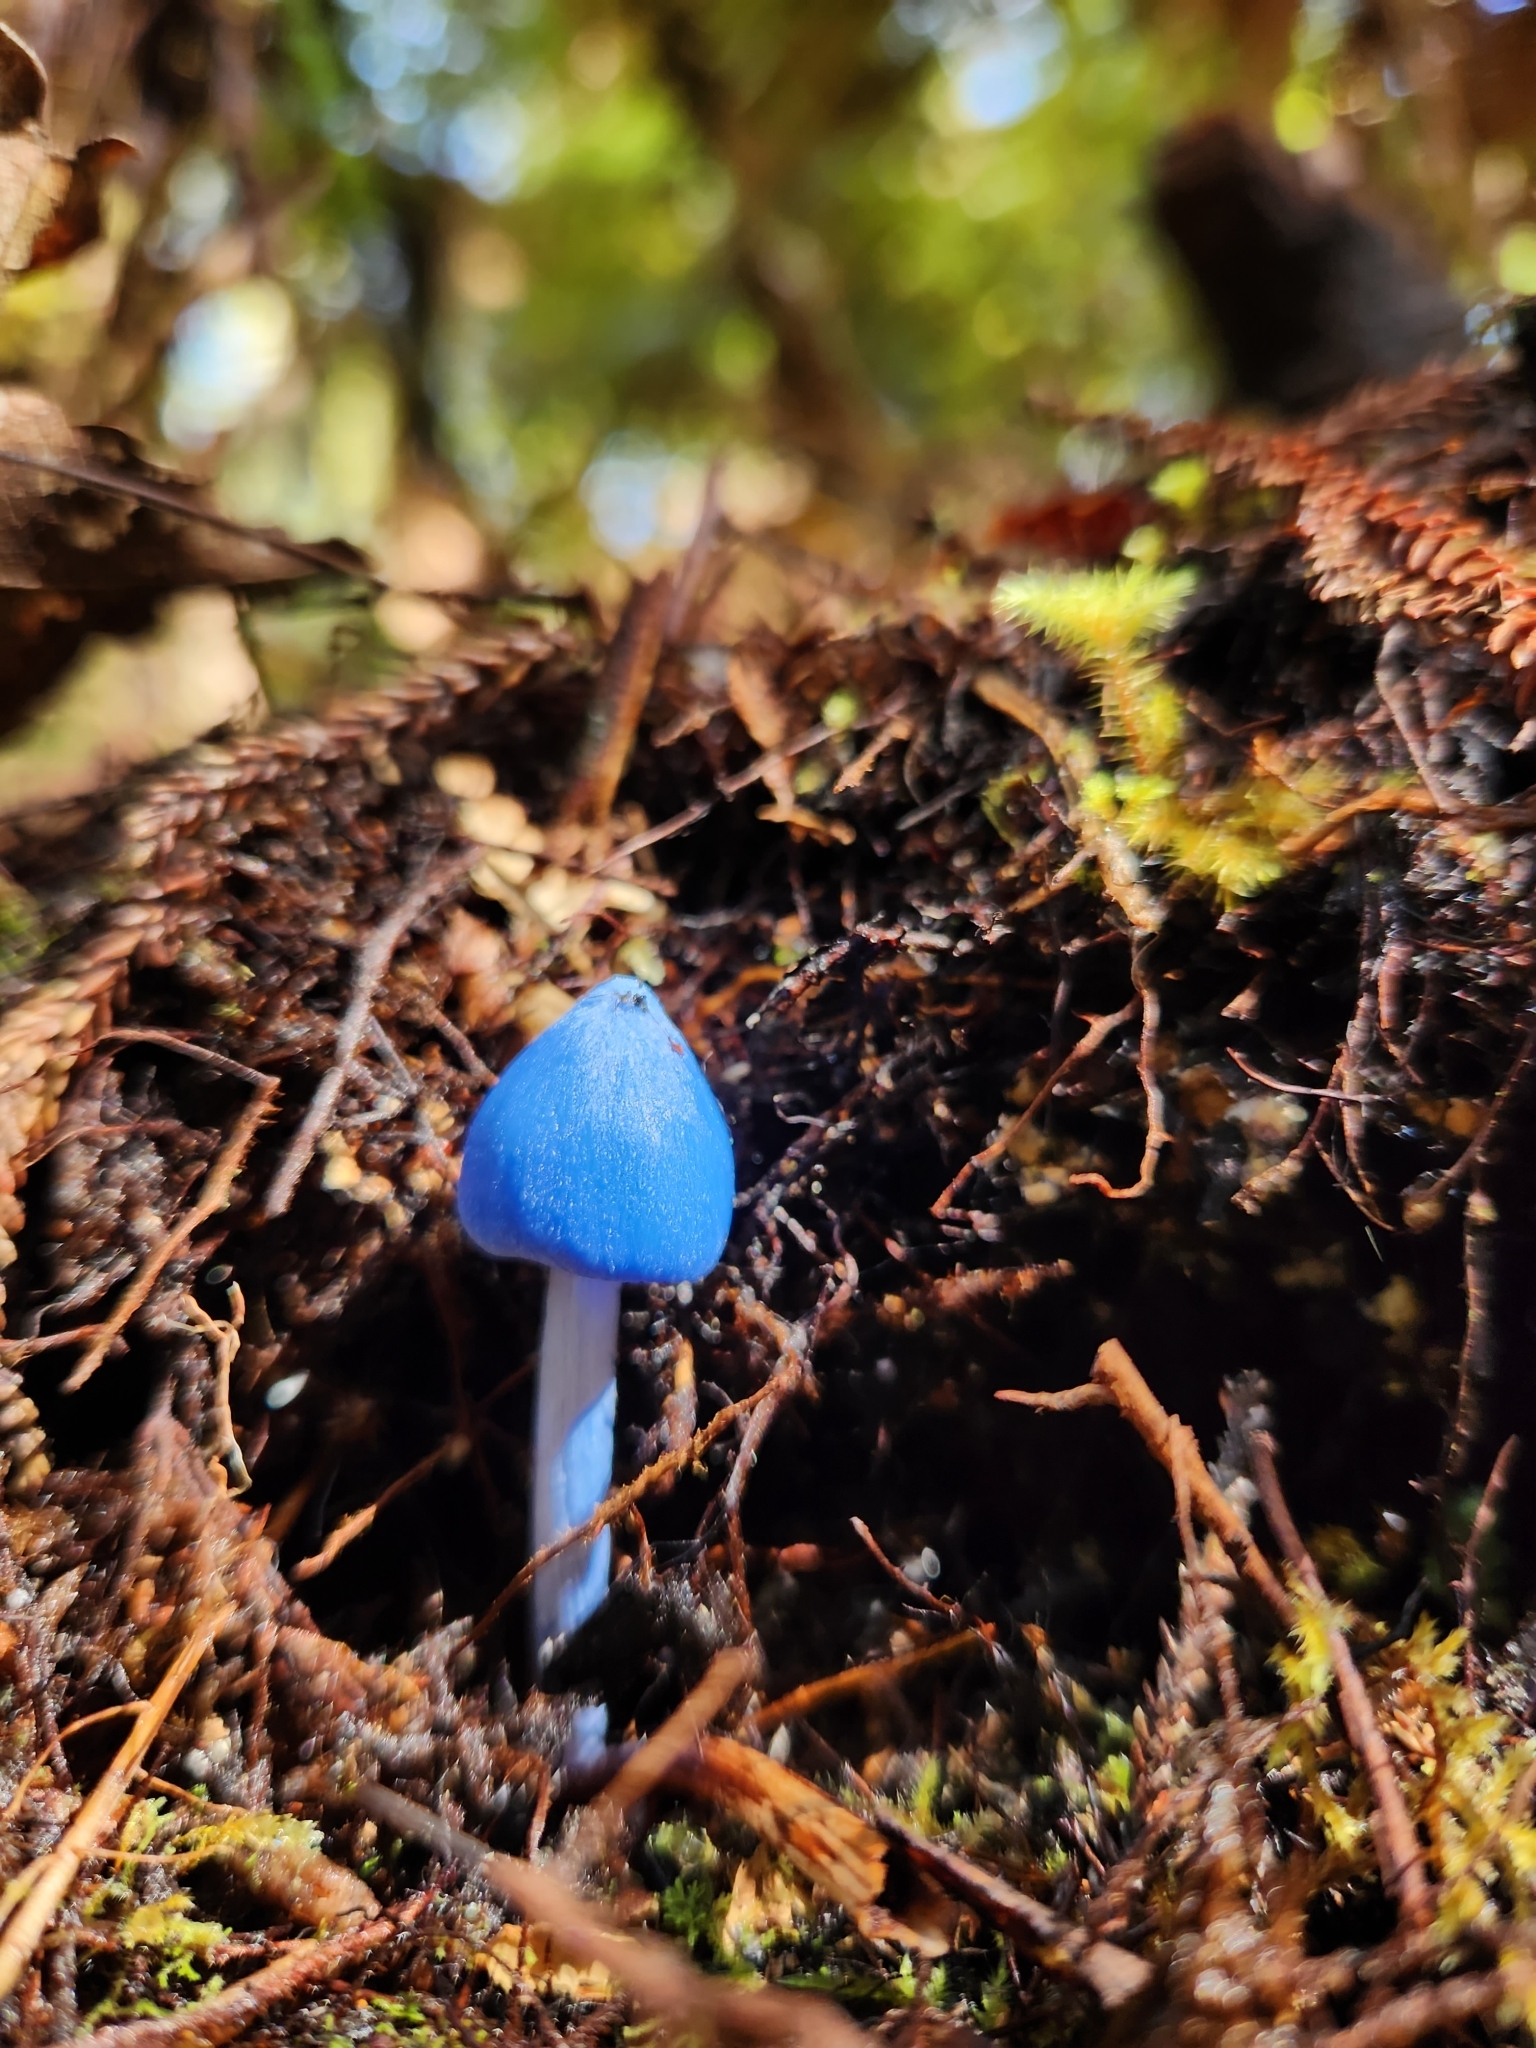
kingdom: Fungi
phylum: Basidiomycota
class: Agaricomycetes
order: Agaricales
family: Entolomataceae
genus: Entoloma
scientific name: Entoloma hochstetteri
